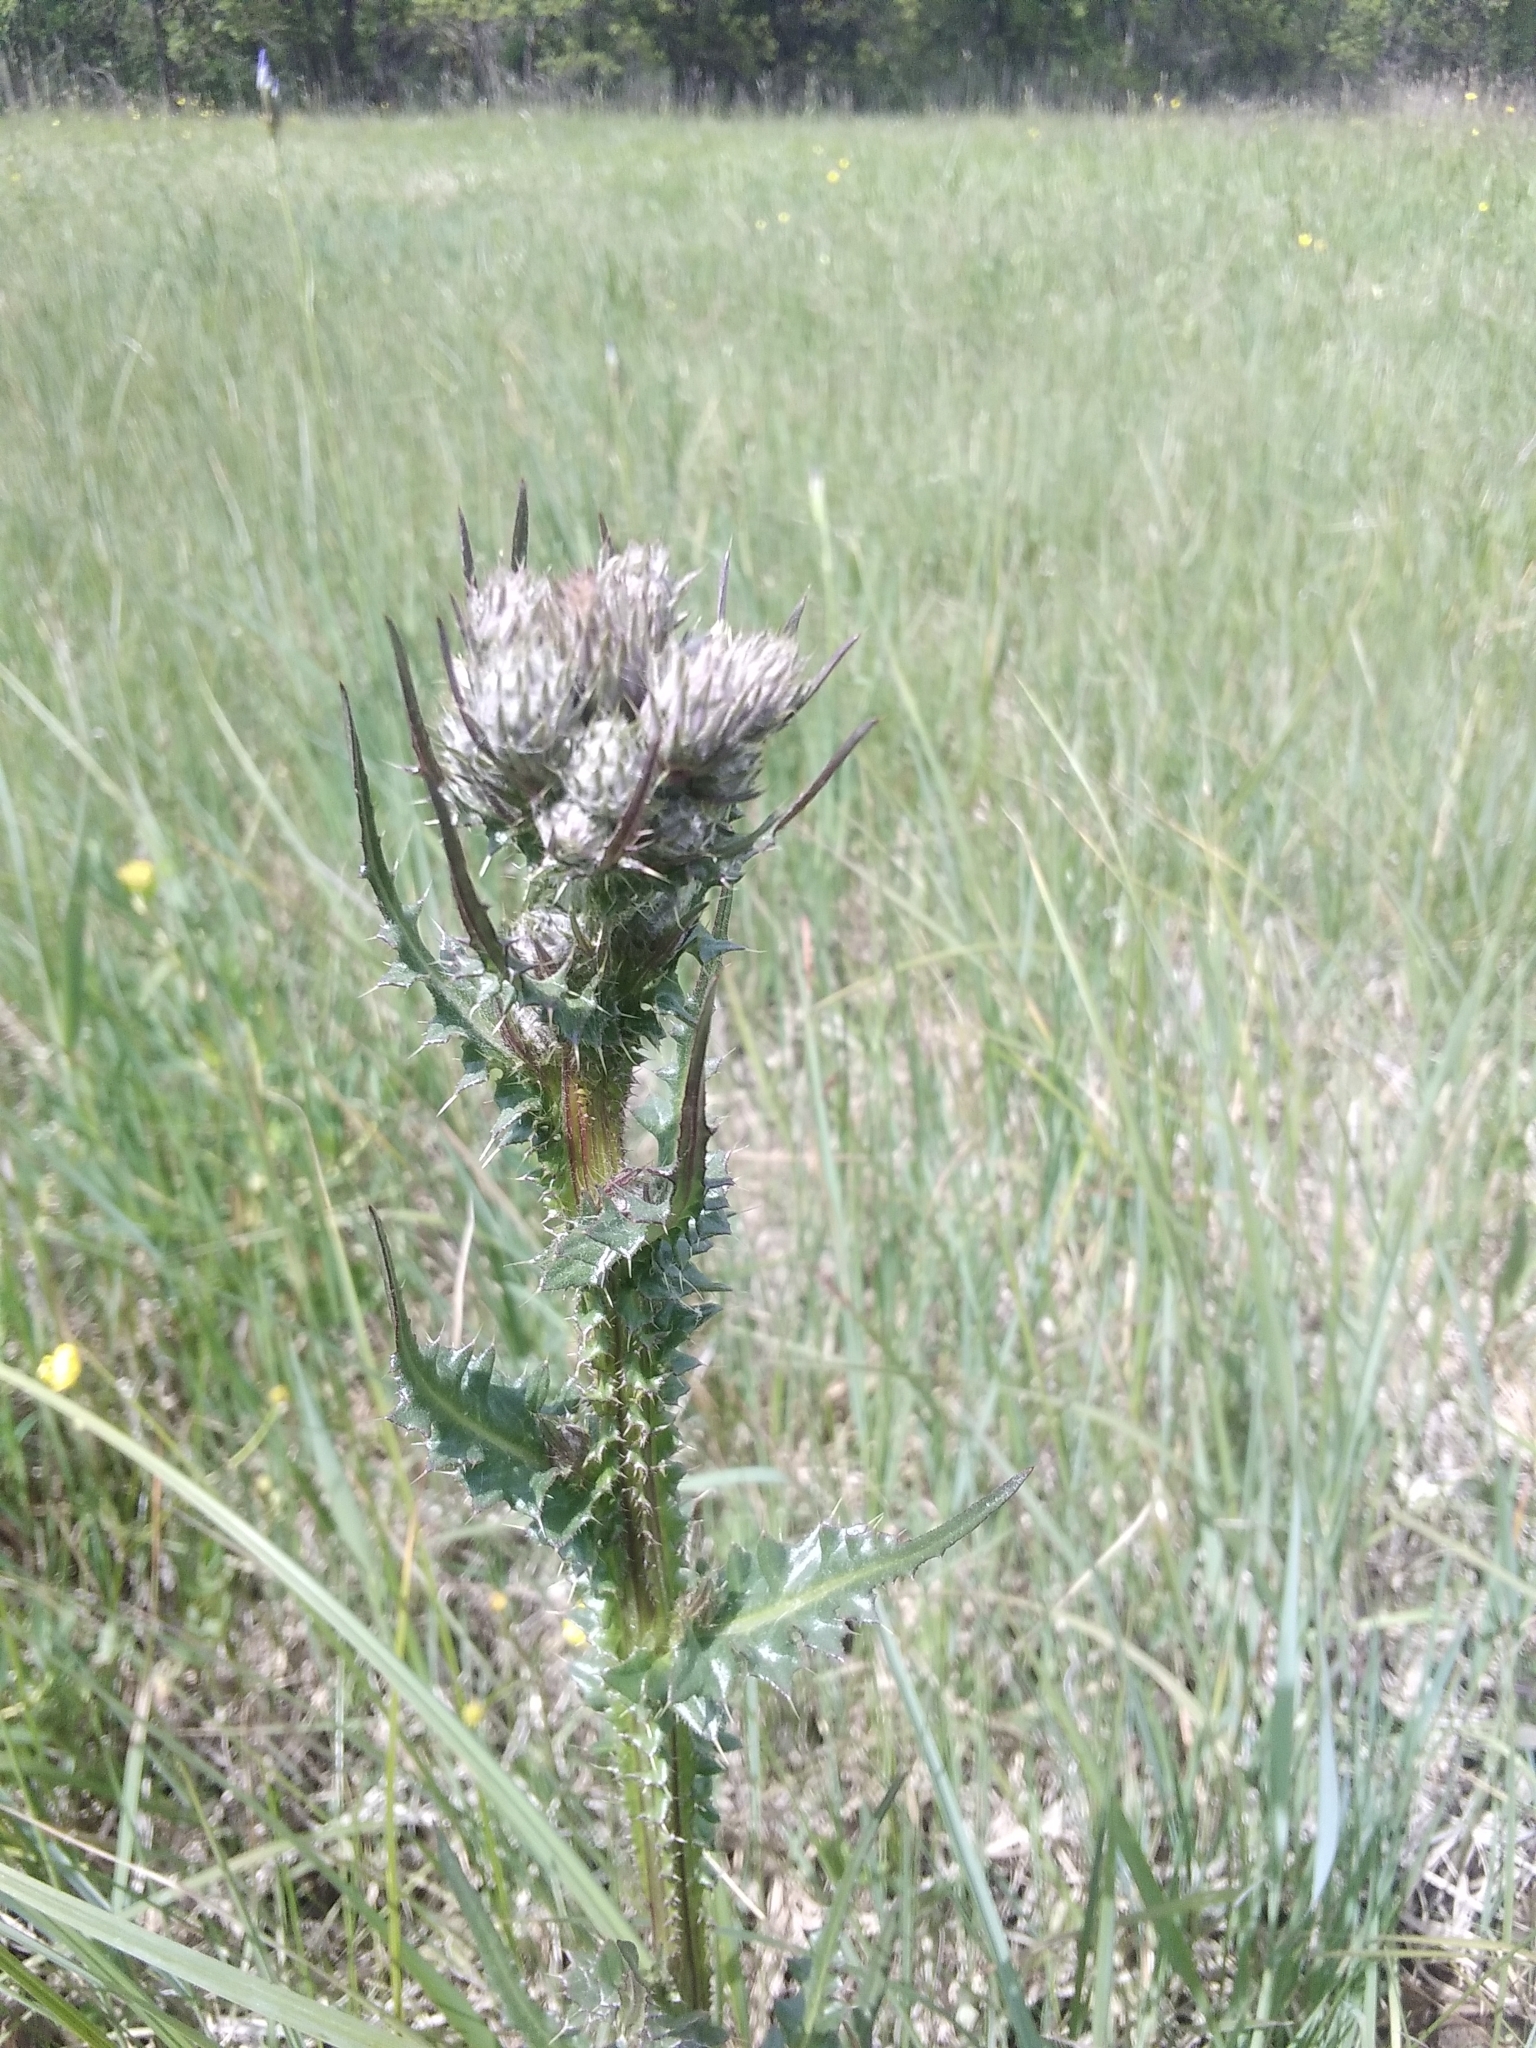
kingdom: Plantae
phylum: Tracheophyta
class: Magnoliopsida
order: Asterales
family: Asteraceae
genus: Cirsium
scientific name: Cirsium brachycephalum
